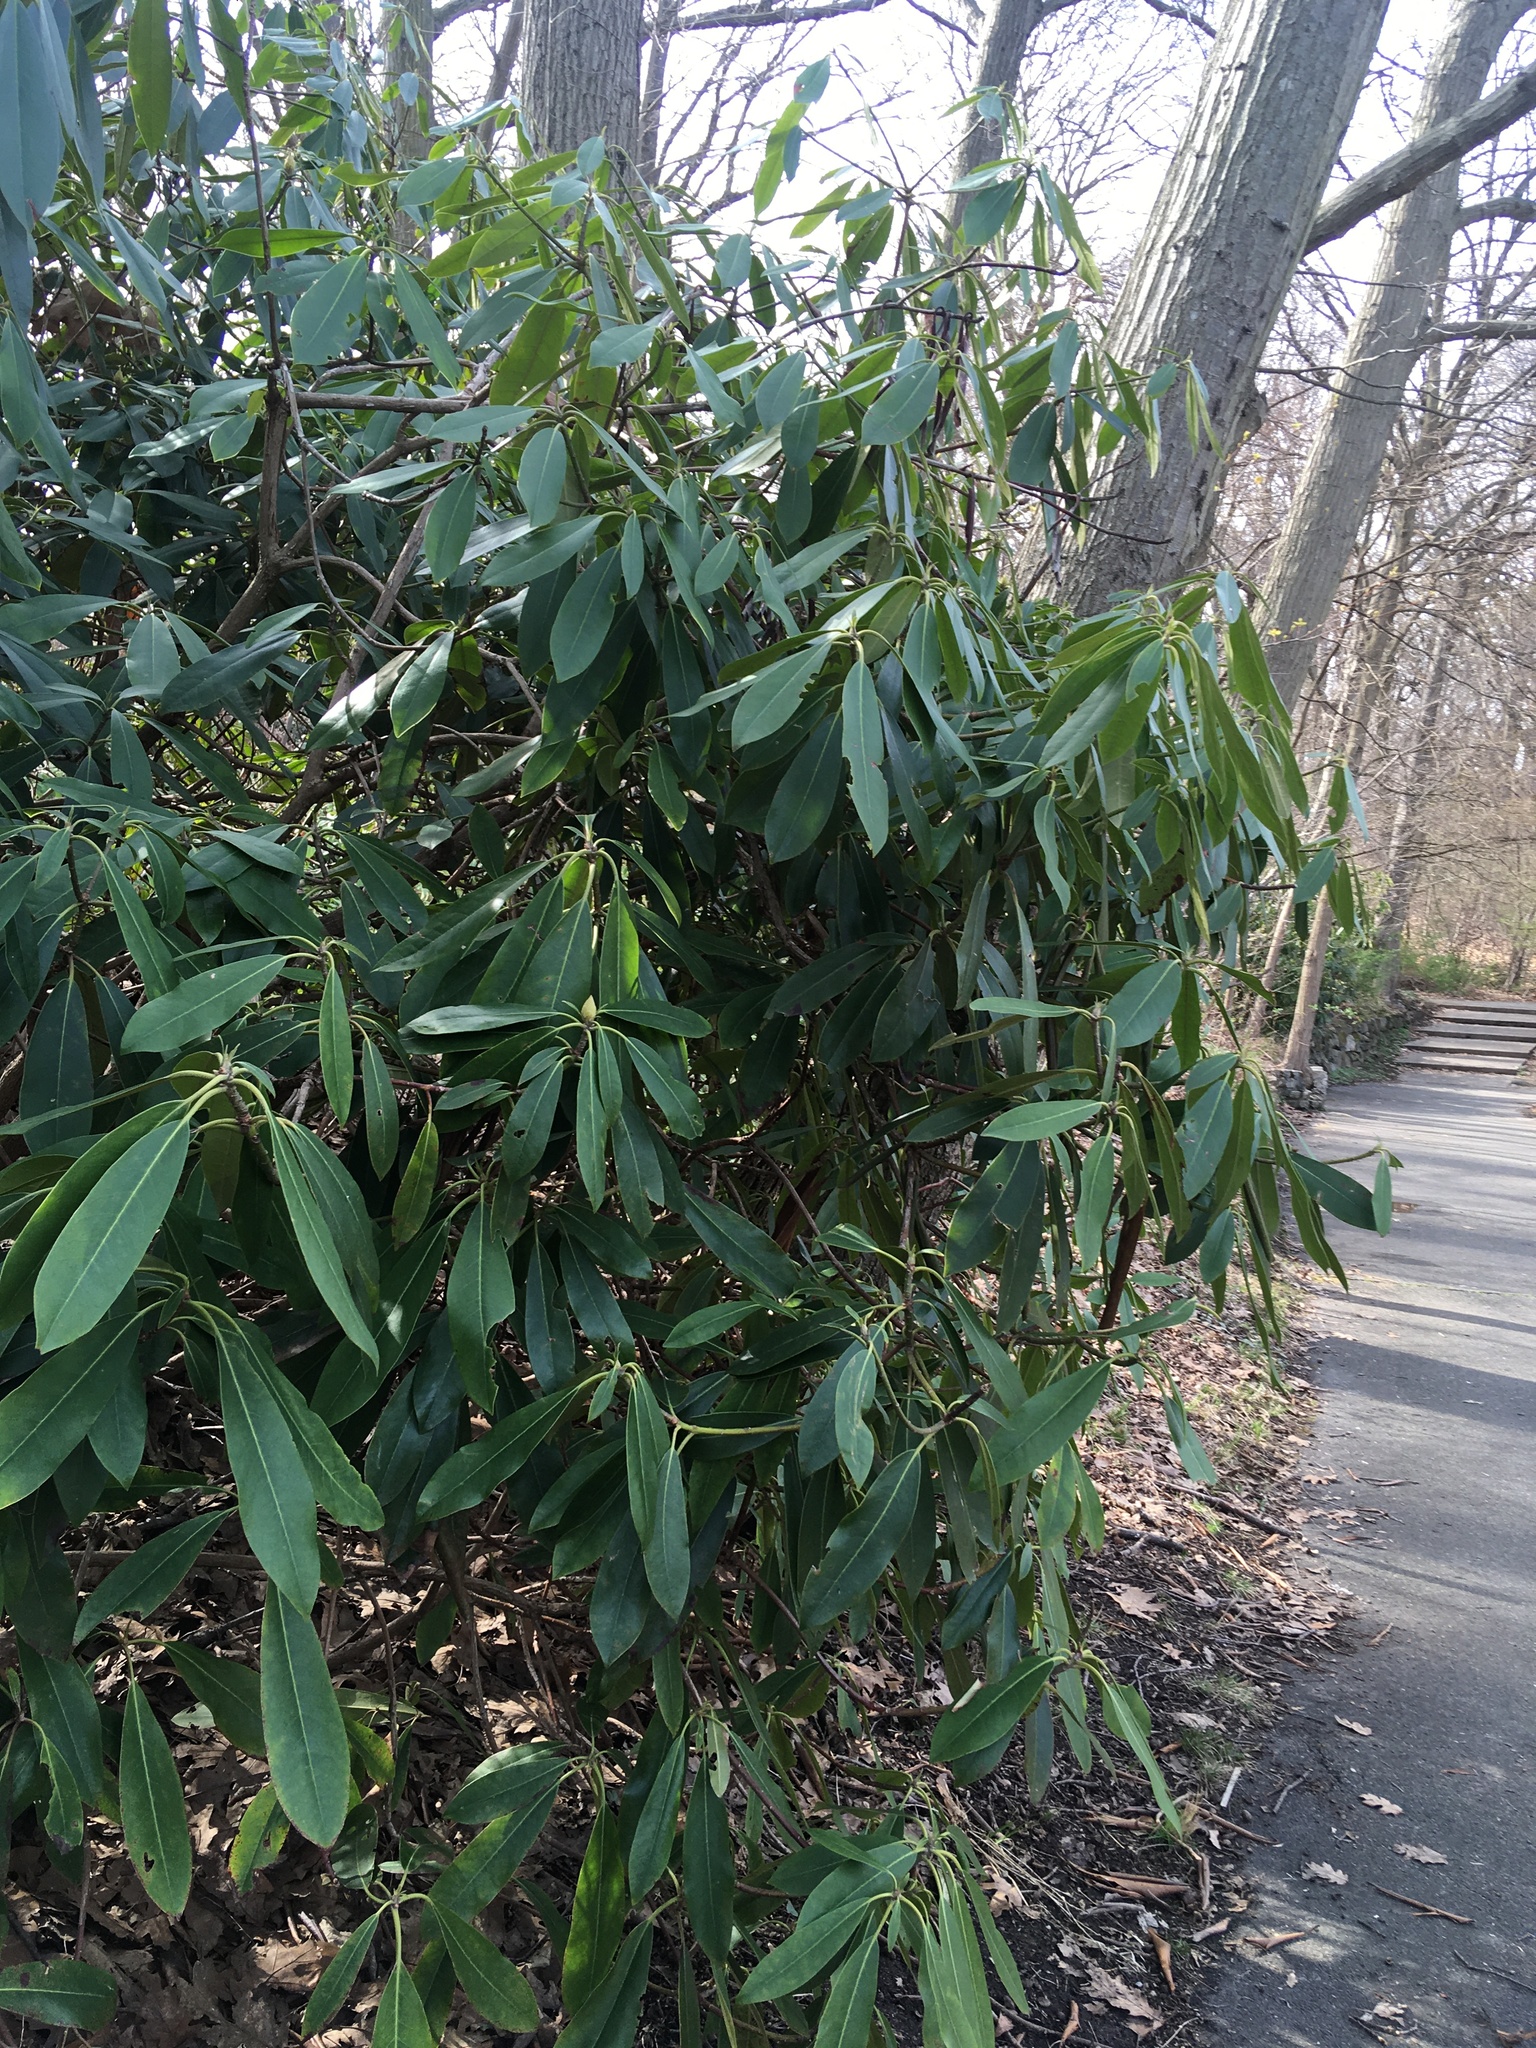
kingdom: Plantae
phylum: Tracheophyta
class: Magnoliopsida
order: Ericales
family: Ericaceae
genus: Rhododendron
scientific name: Rhododendron maximum
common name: Great rhododendron
